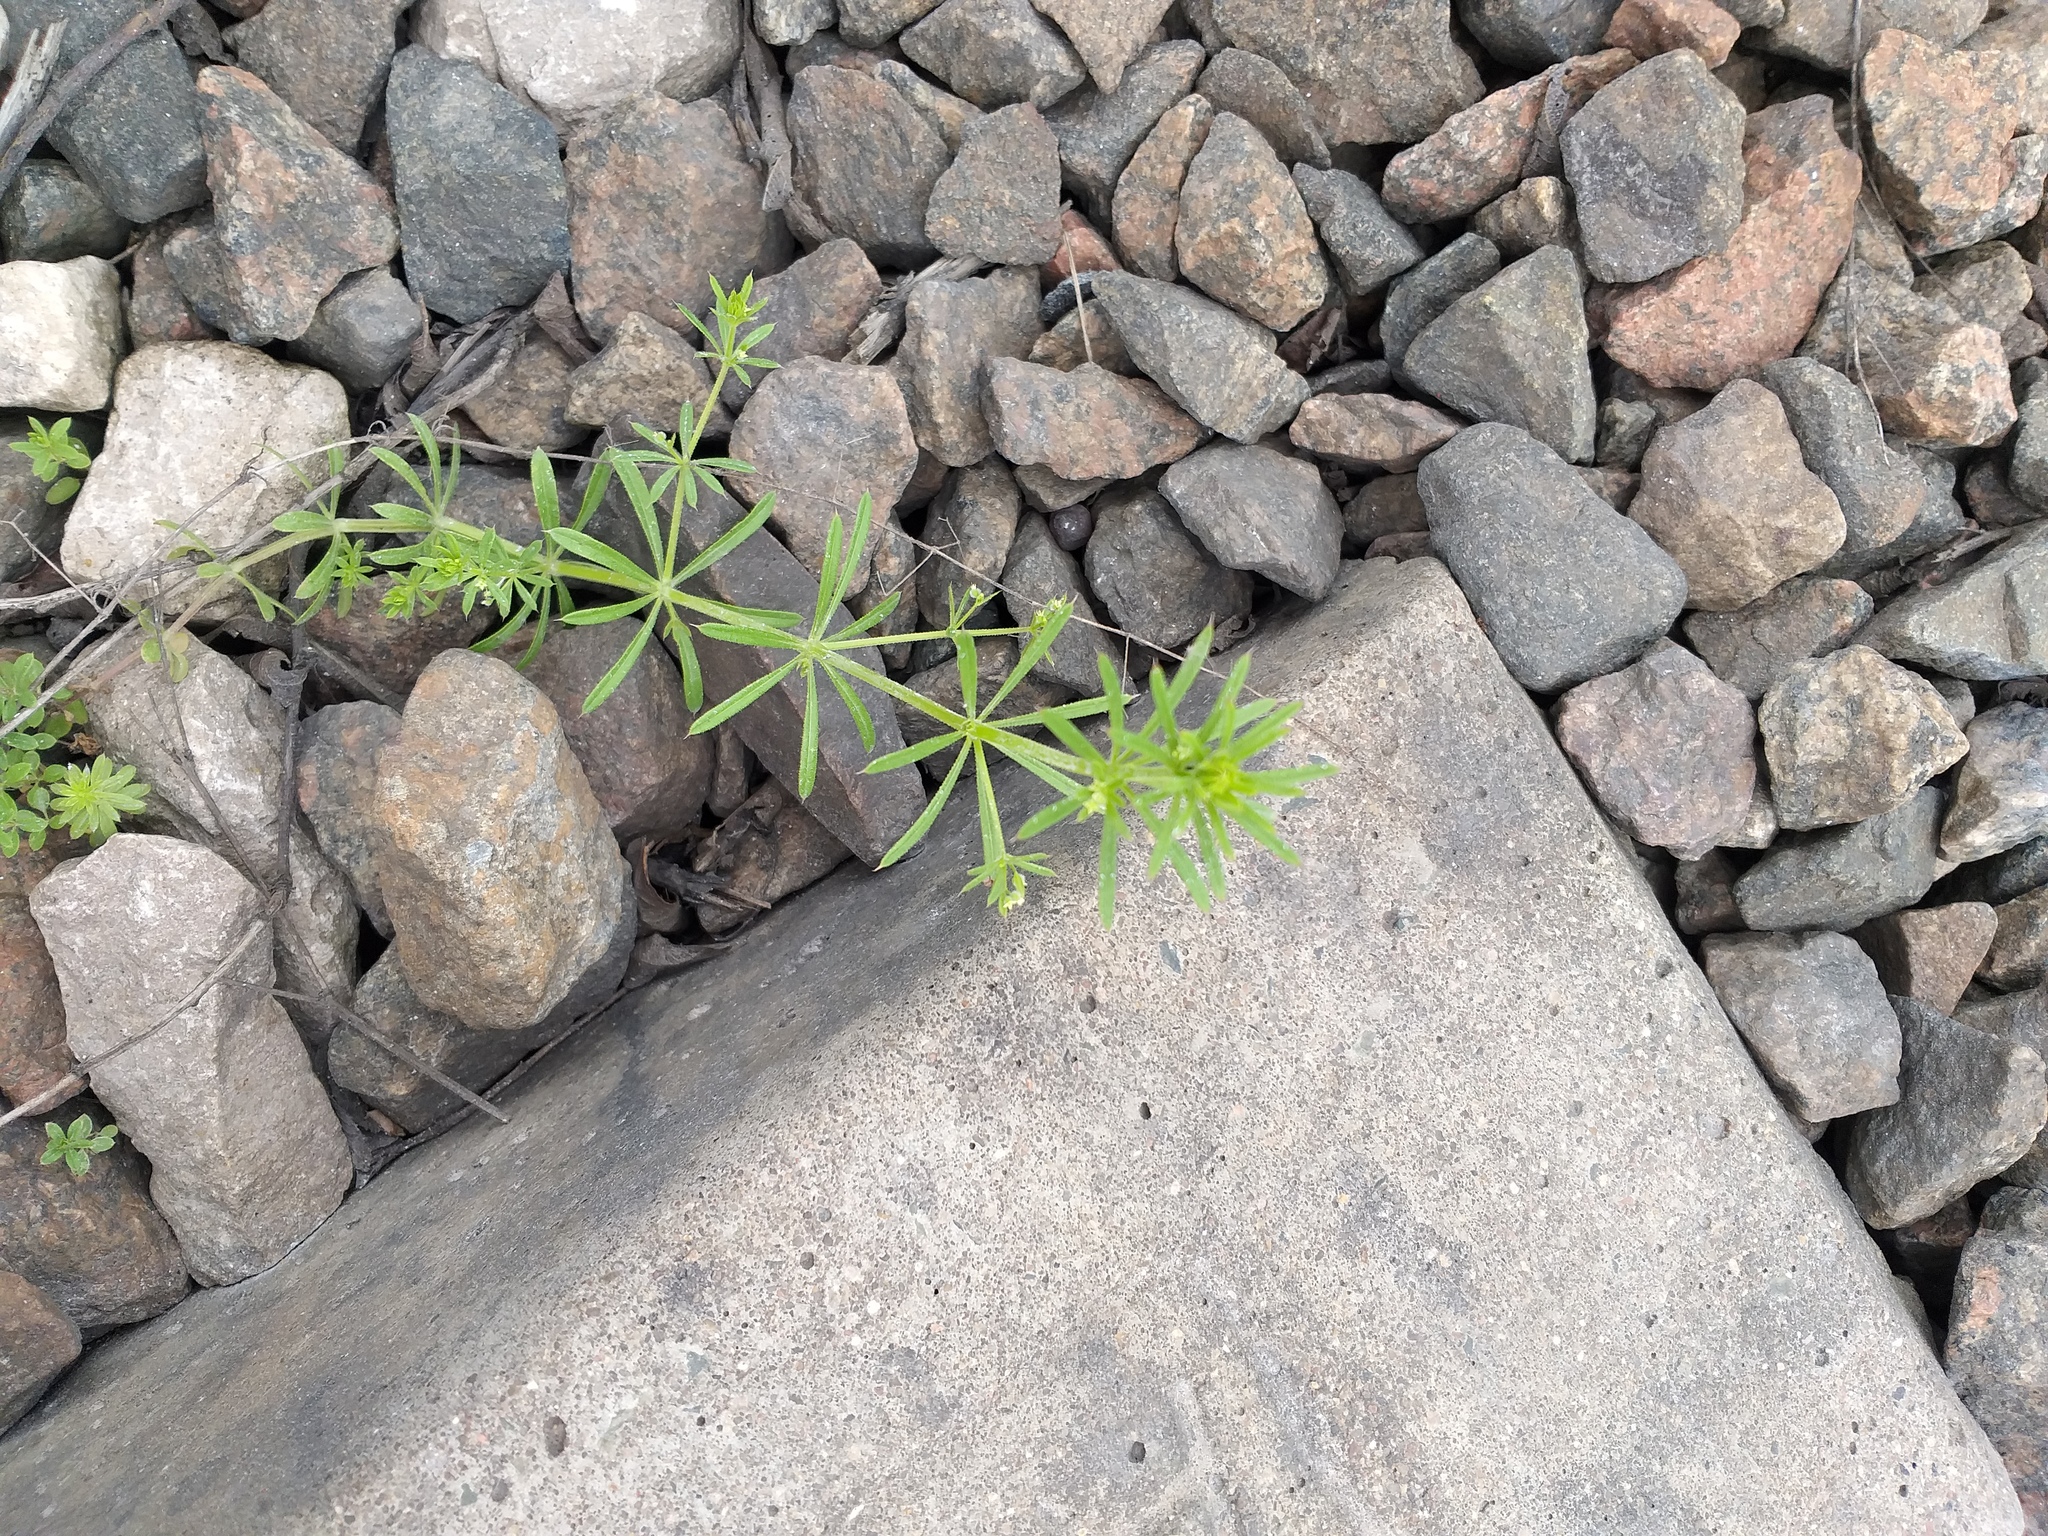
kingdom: Plantae
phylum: Tracheophyta
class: Magnoliopsida
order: Gentianales
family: Rubiaceae
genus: Galium
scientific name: Galium
